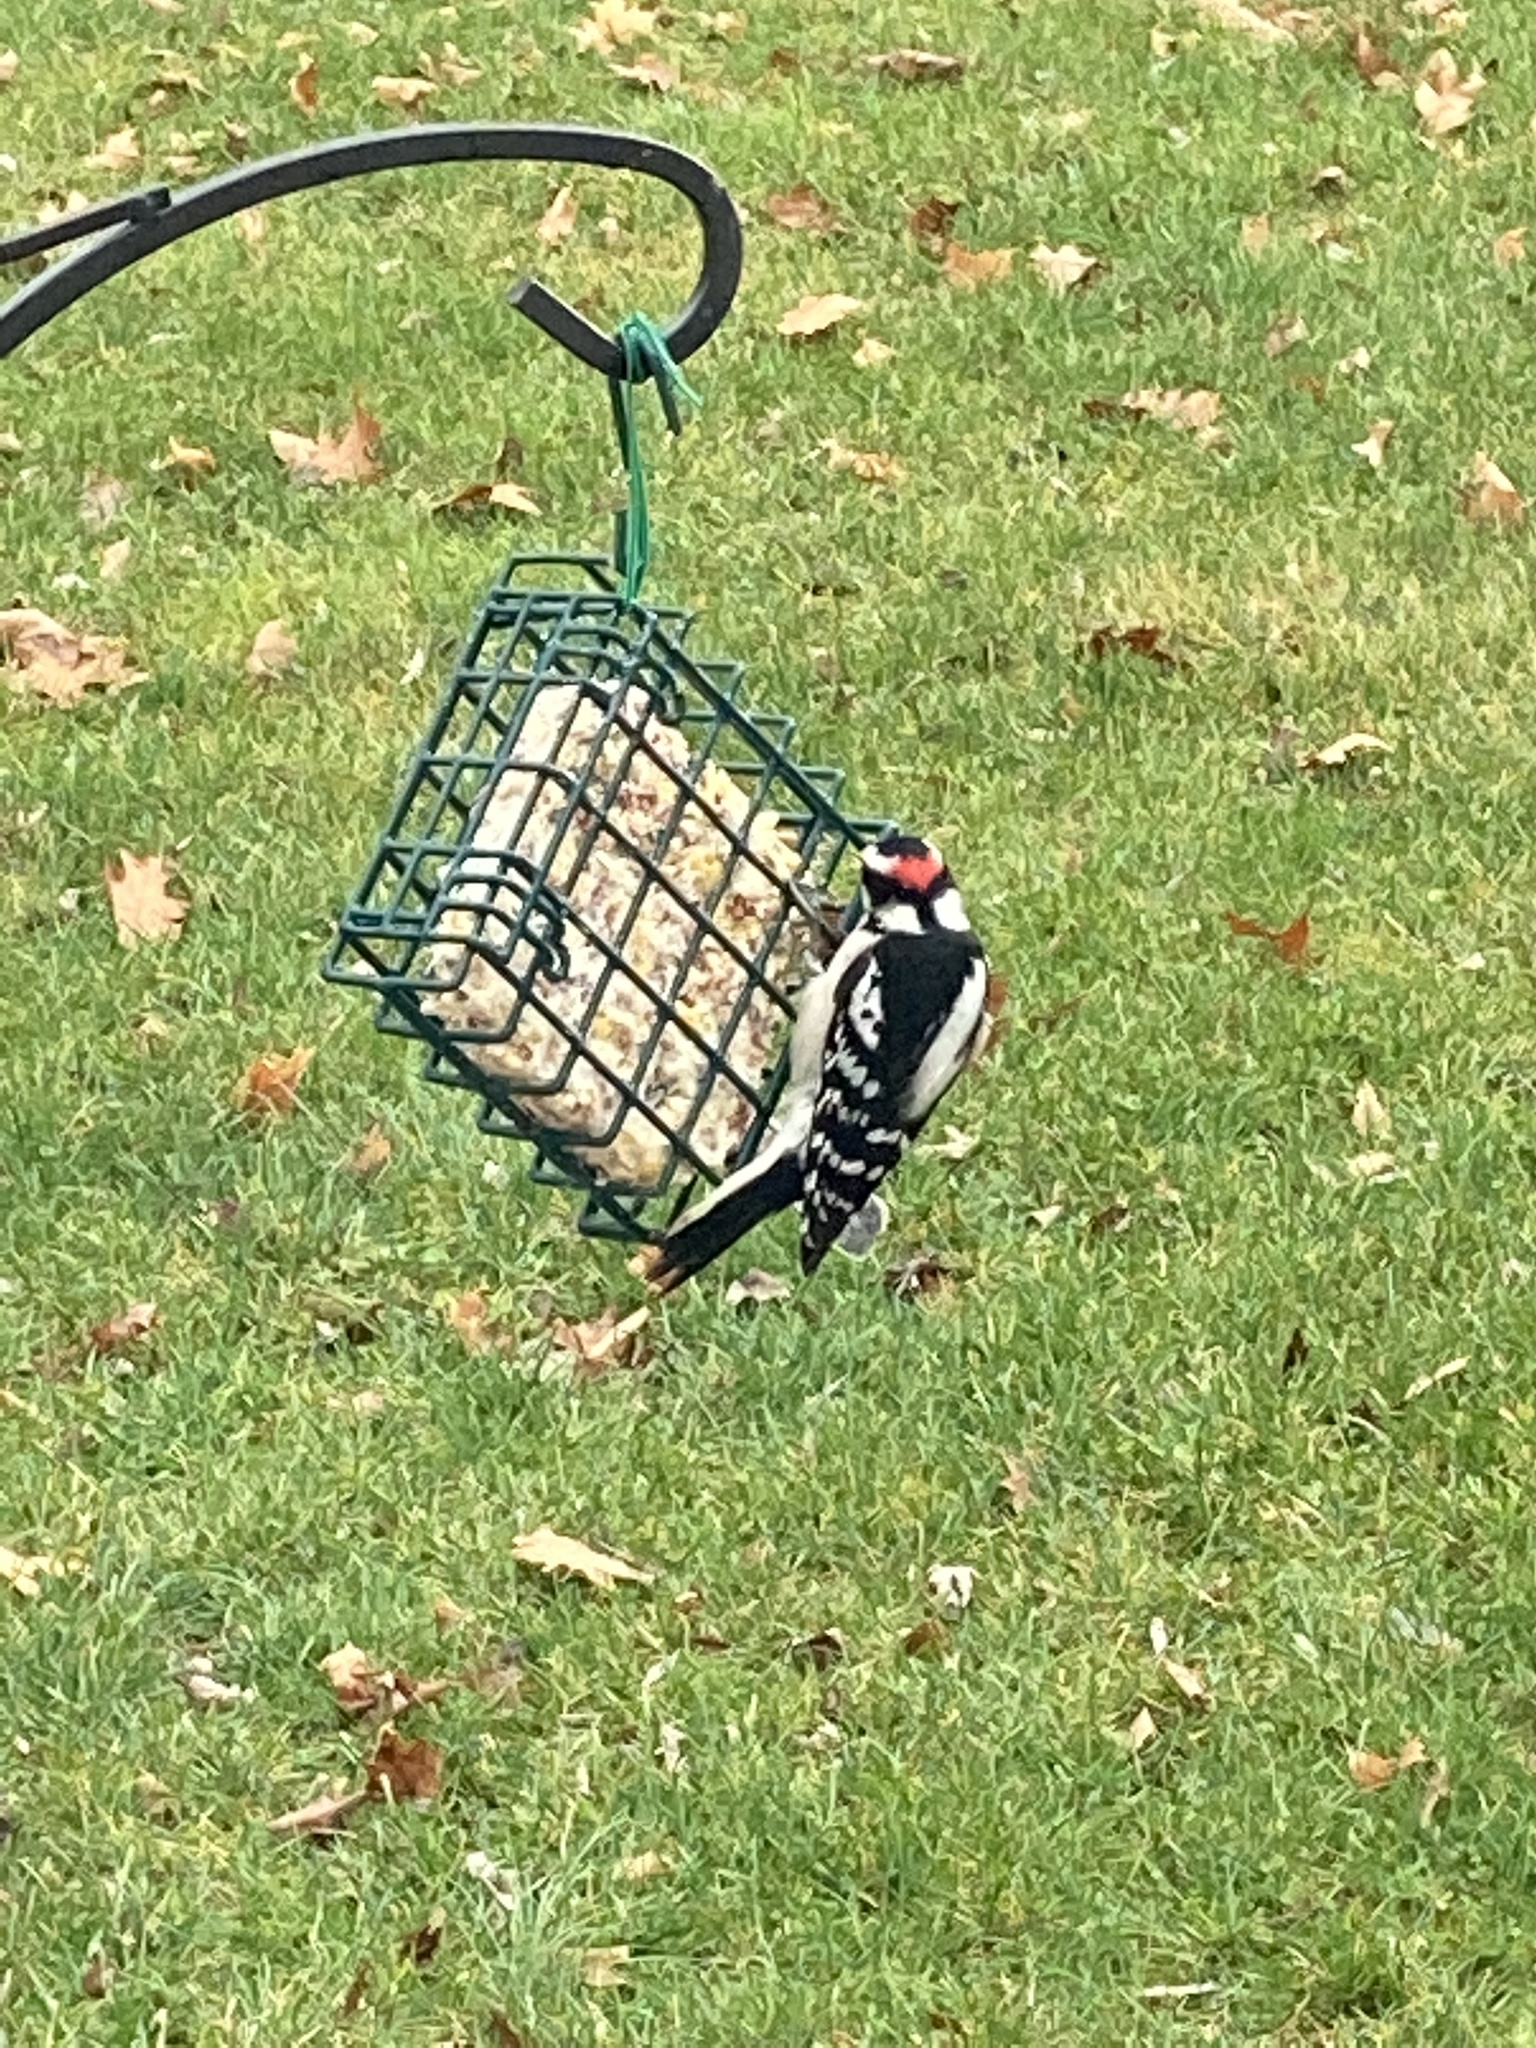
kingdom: Animalia
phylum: Chordata
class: Aves
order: Piciformes
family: Picidae
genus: Dryobates
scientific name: Dryobates pubescens
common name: Downy woodpecker
